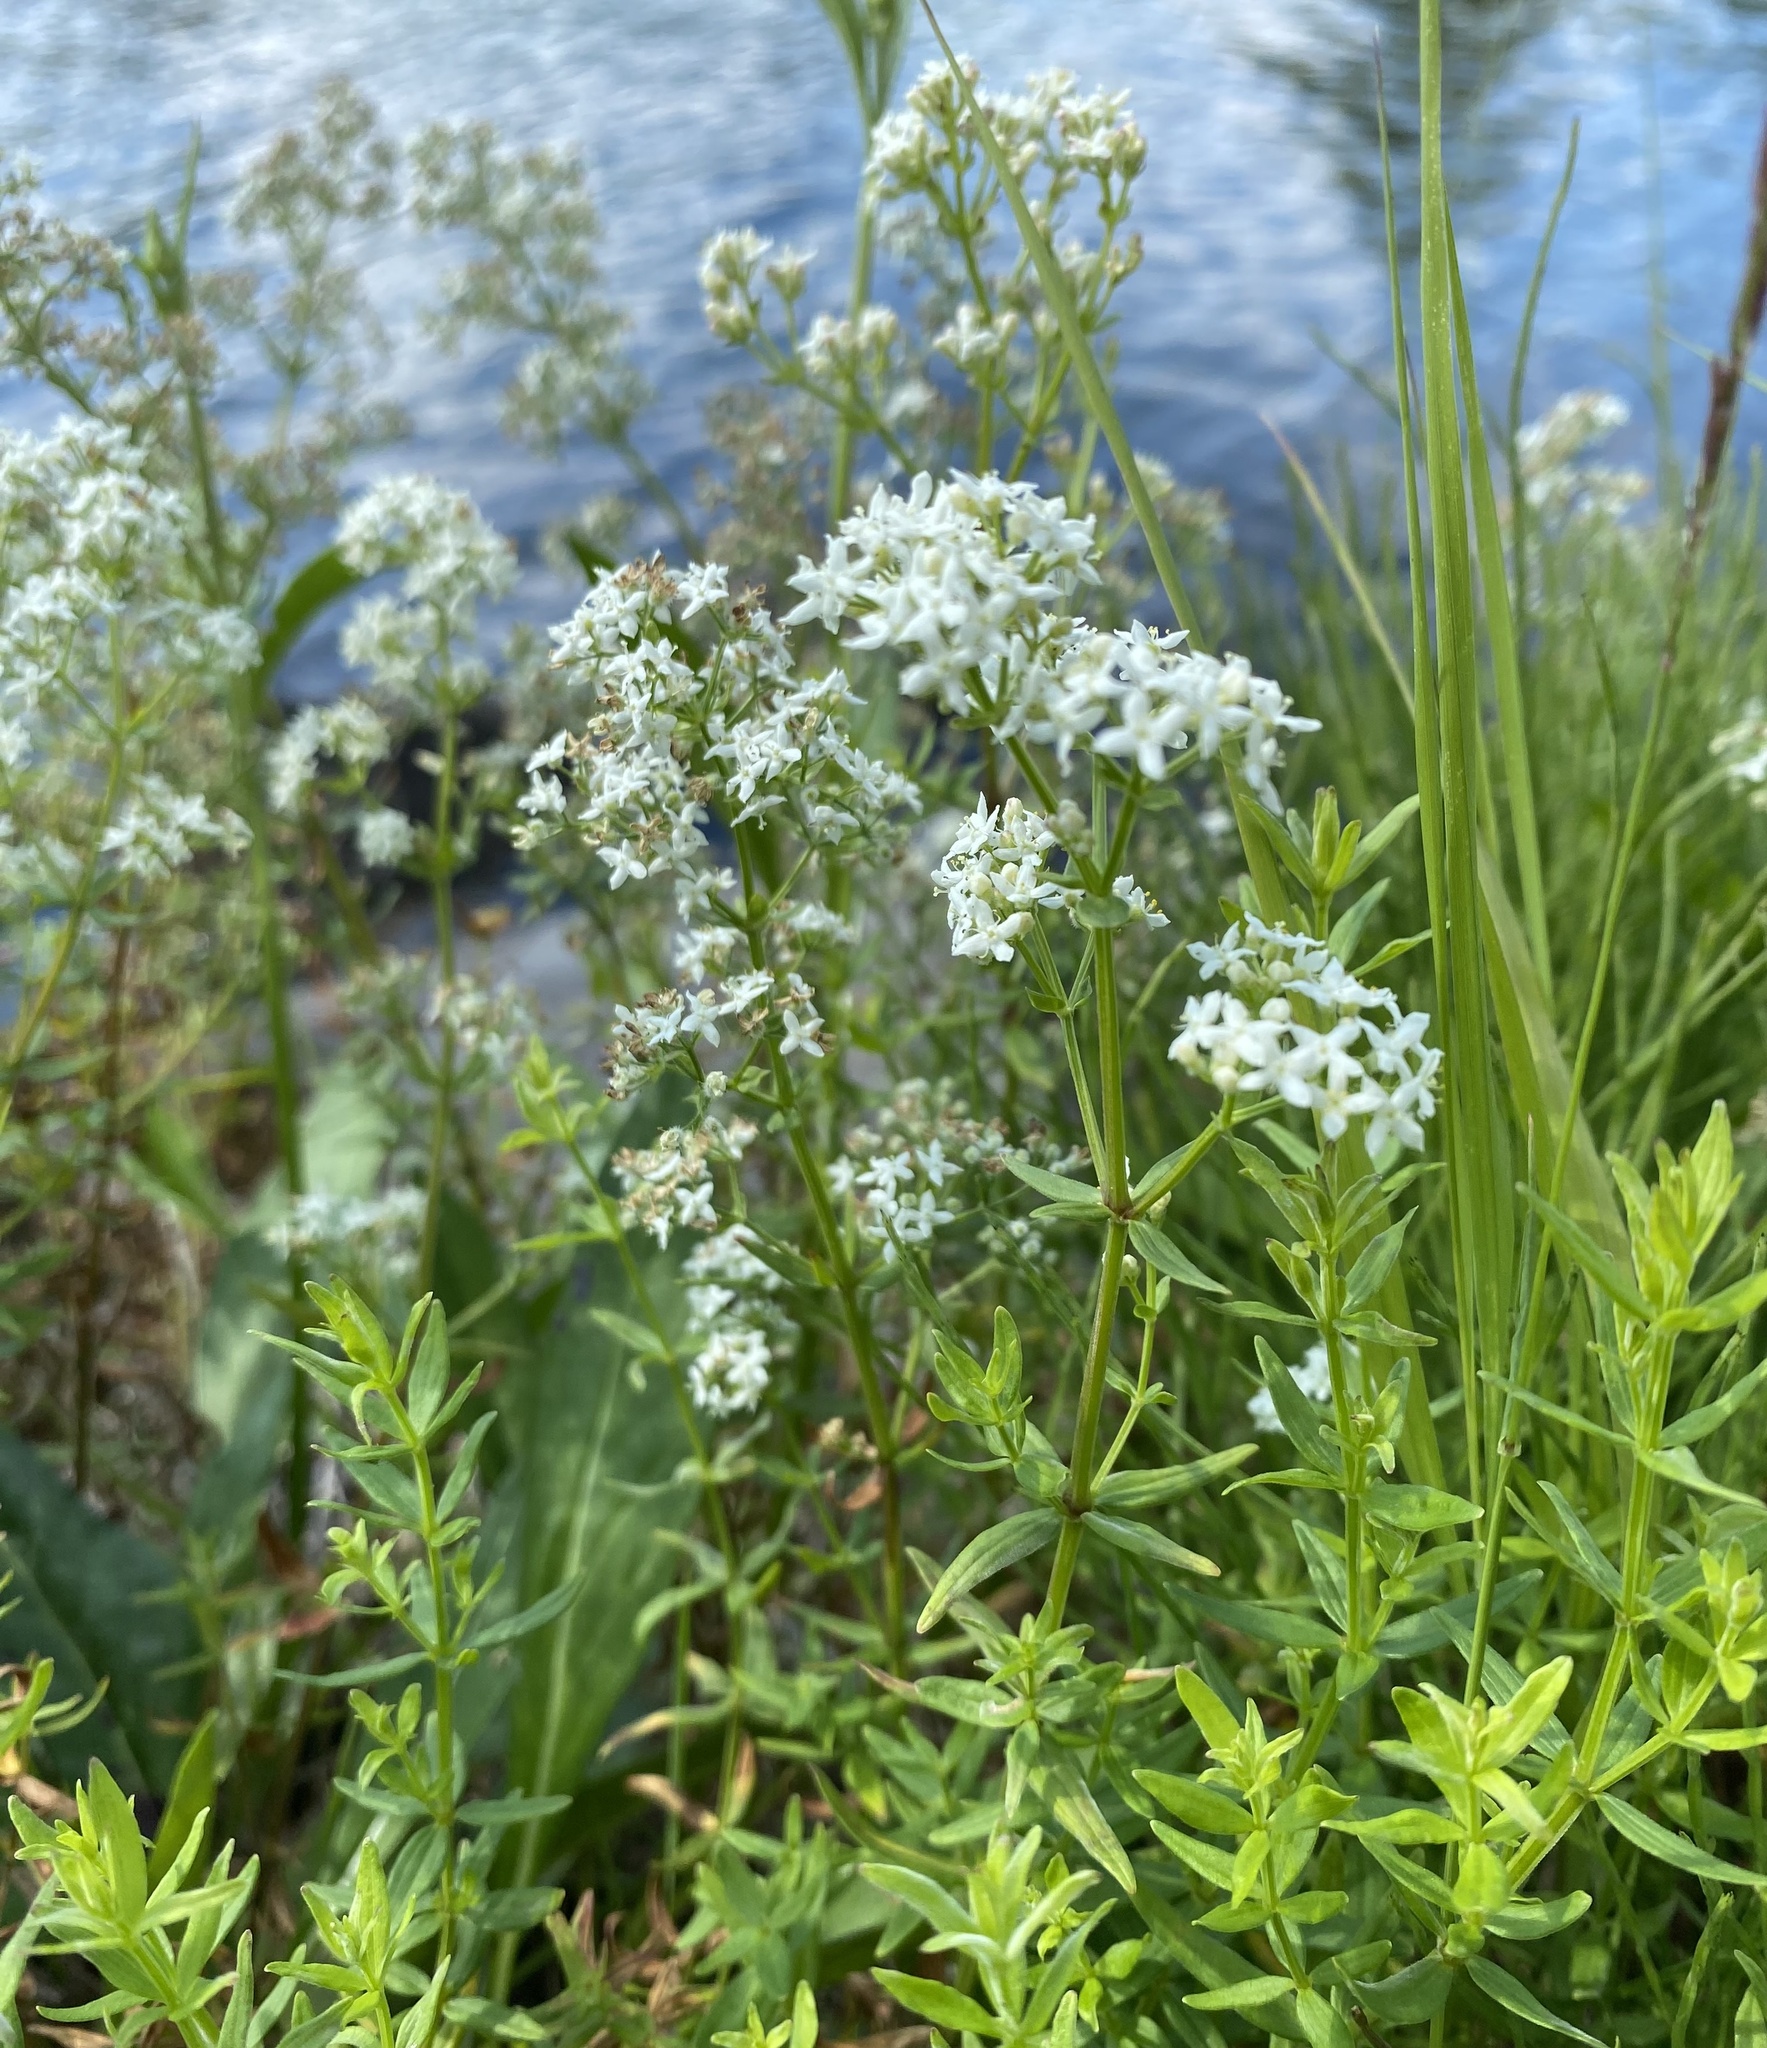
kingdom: Plantae
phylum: Tracheophyta
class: Magnoliopsida
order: Gentianales
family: Rubiaceae
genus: Galium
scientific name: Galium boreale
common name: Northern bedstraw
